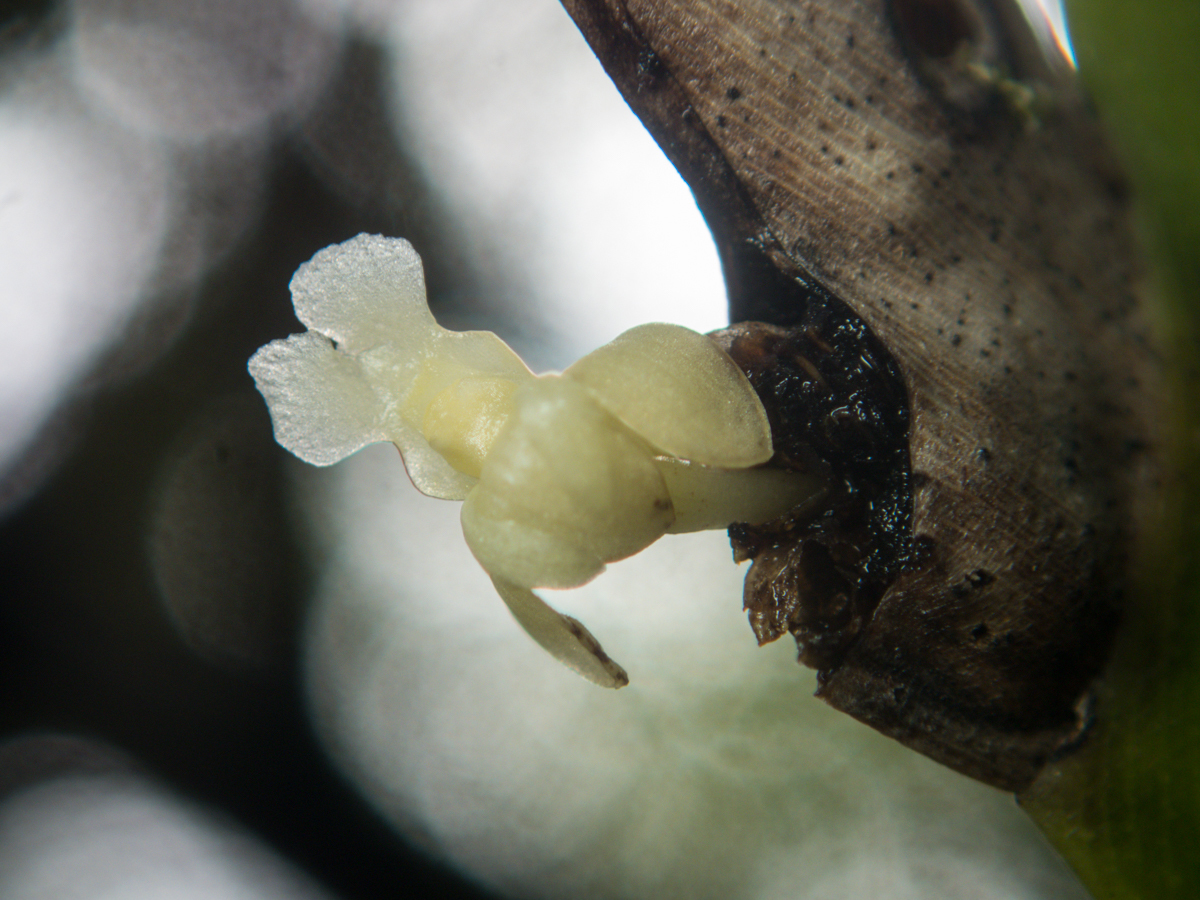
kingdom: Plantae
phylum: Tracheophyta
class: Liliopsida
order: Asparagales
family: Orchidaceae
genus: Dendrobium
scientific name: Dendrobium aloifolium
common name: Aloe-like dendrobium
